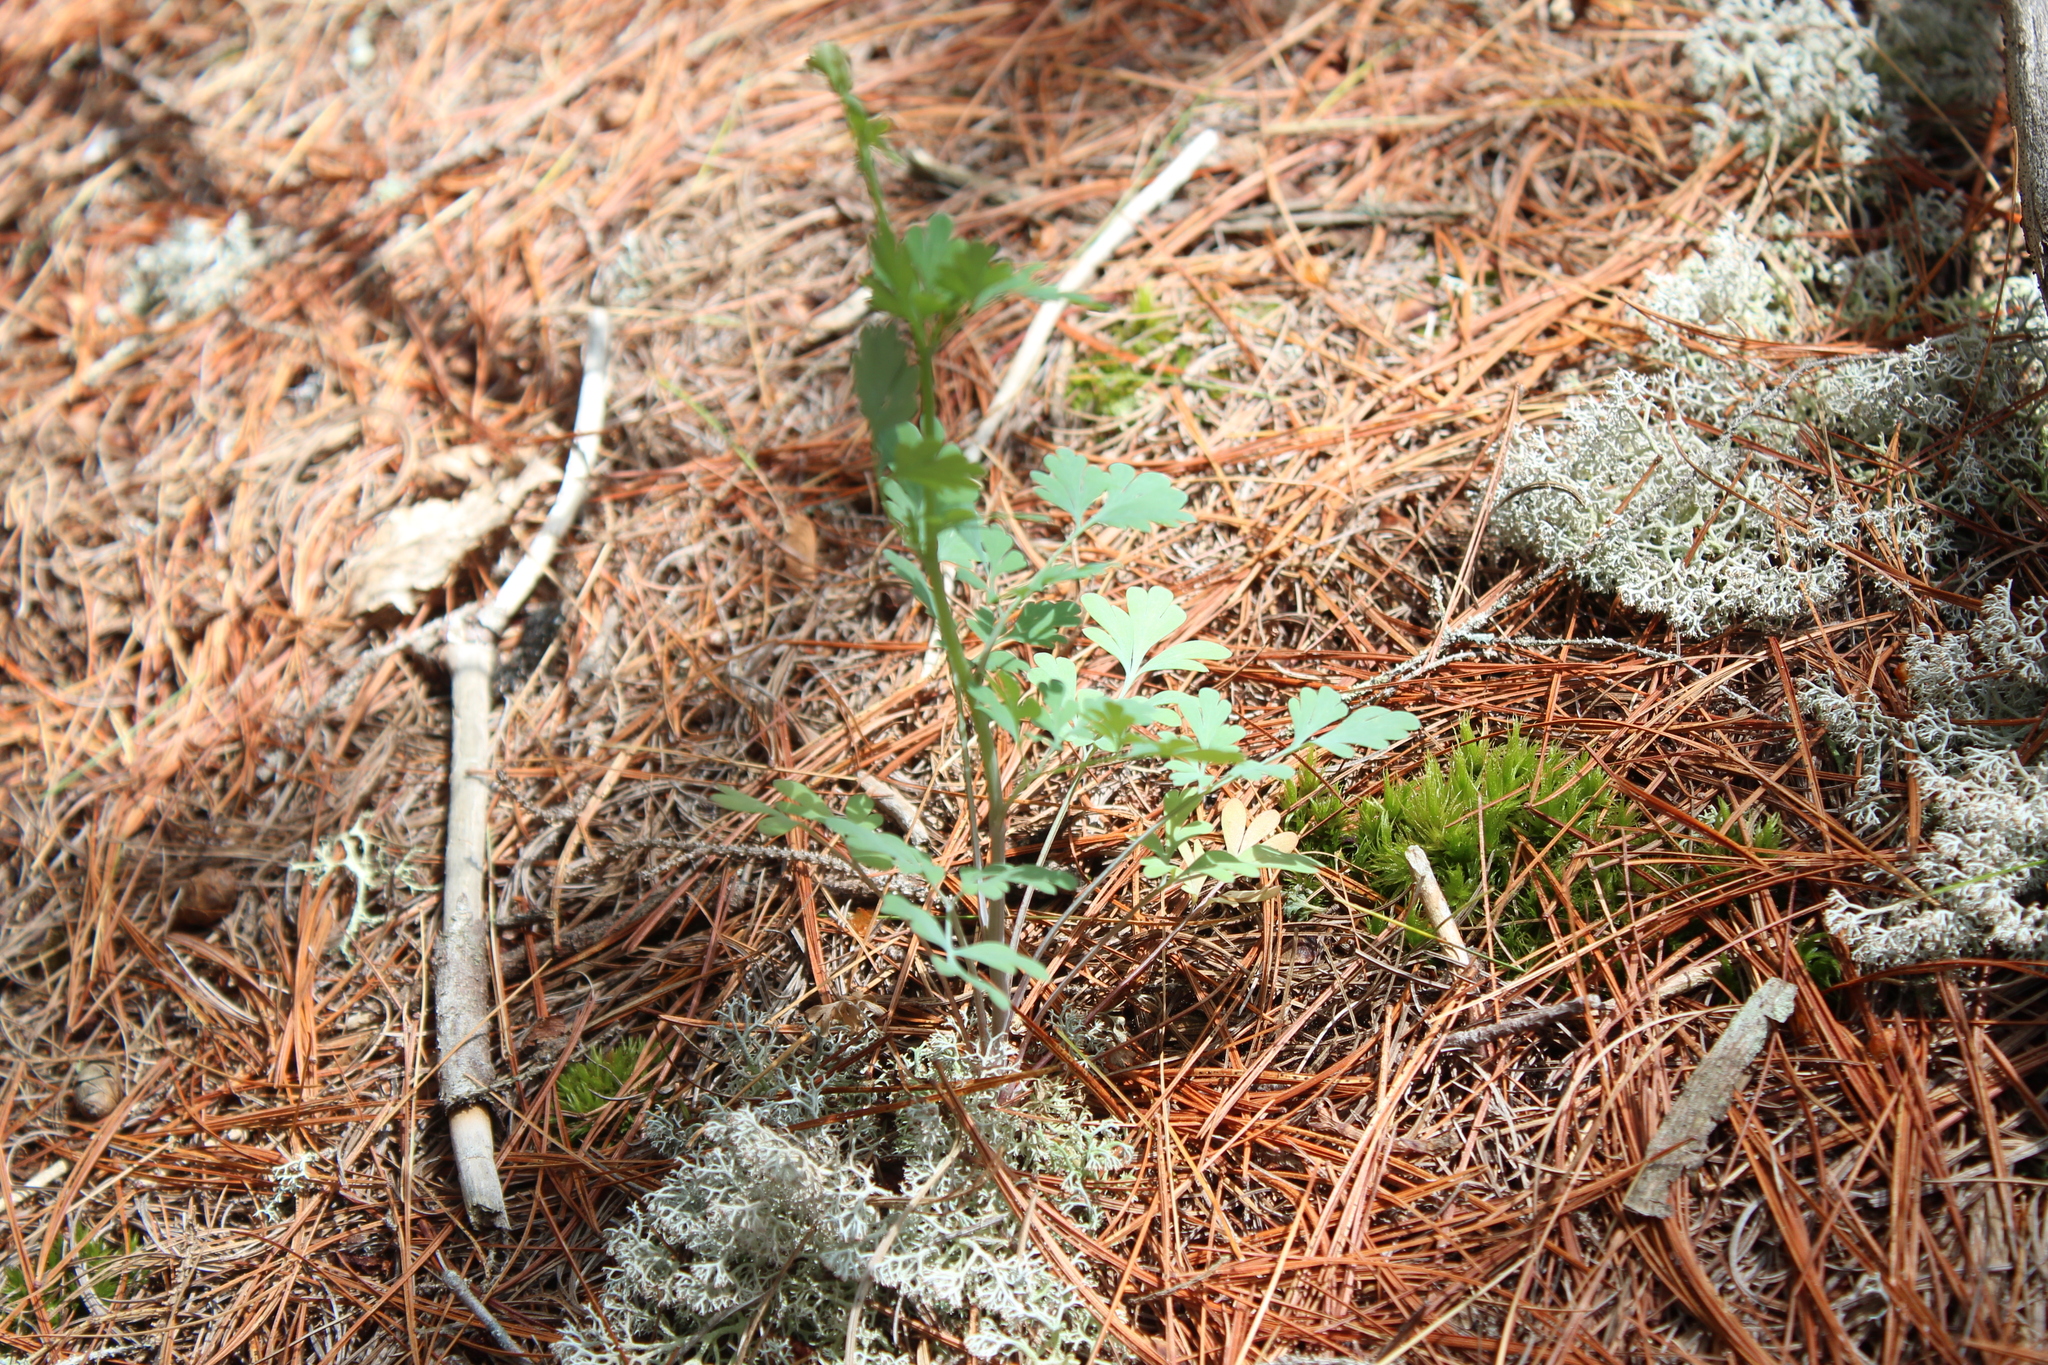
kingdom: Plantae
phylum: Tracheophyta
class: Magnoliopsida
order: Ranunculales
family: Papaveraceae
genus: Capnoides
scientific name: Capnoides sempervirens
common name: Rock harlequin
